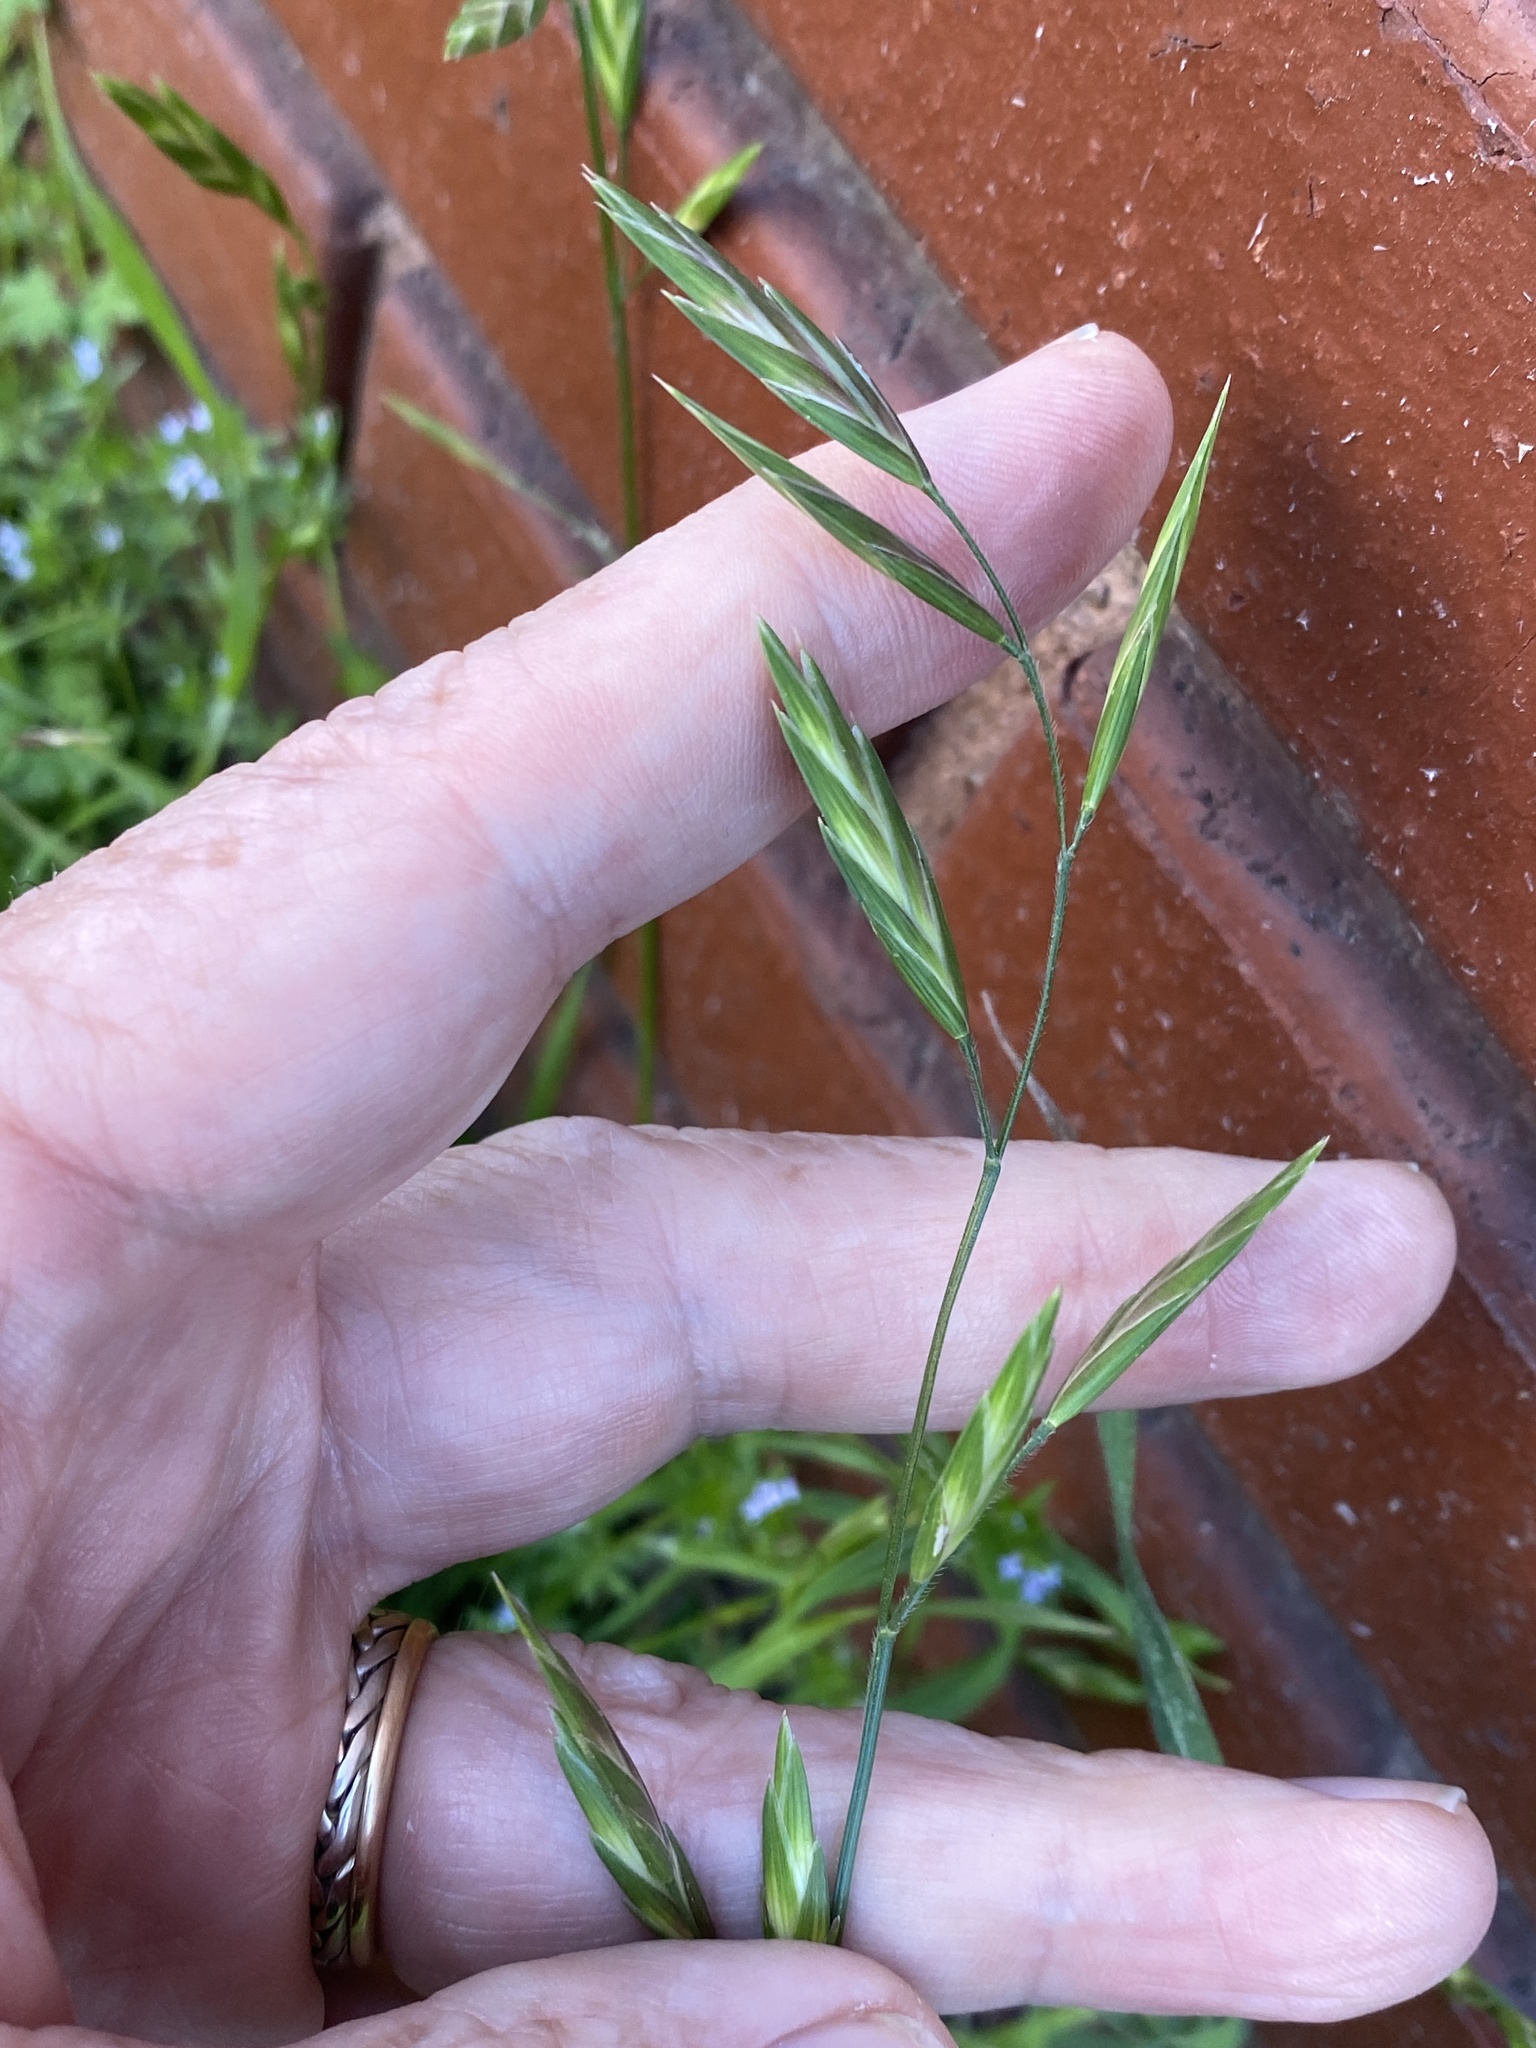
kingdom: Plantae
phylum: Tracheophyta
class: Liliopsida
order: Poales
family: Poaceae
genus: Bromus
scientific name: Bromus catharticus
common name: Rescuegrass
